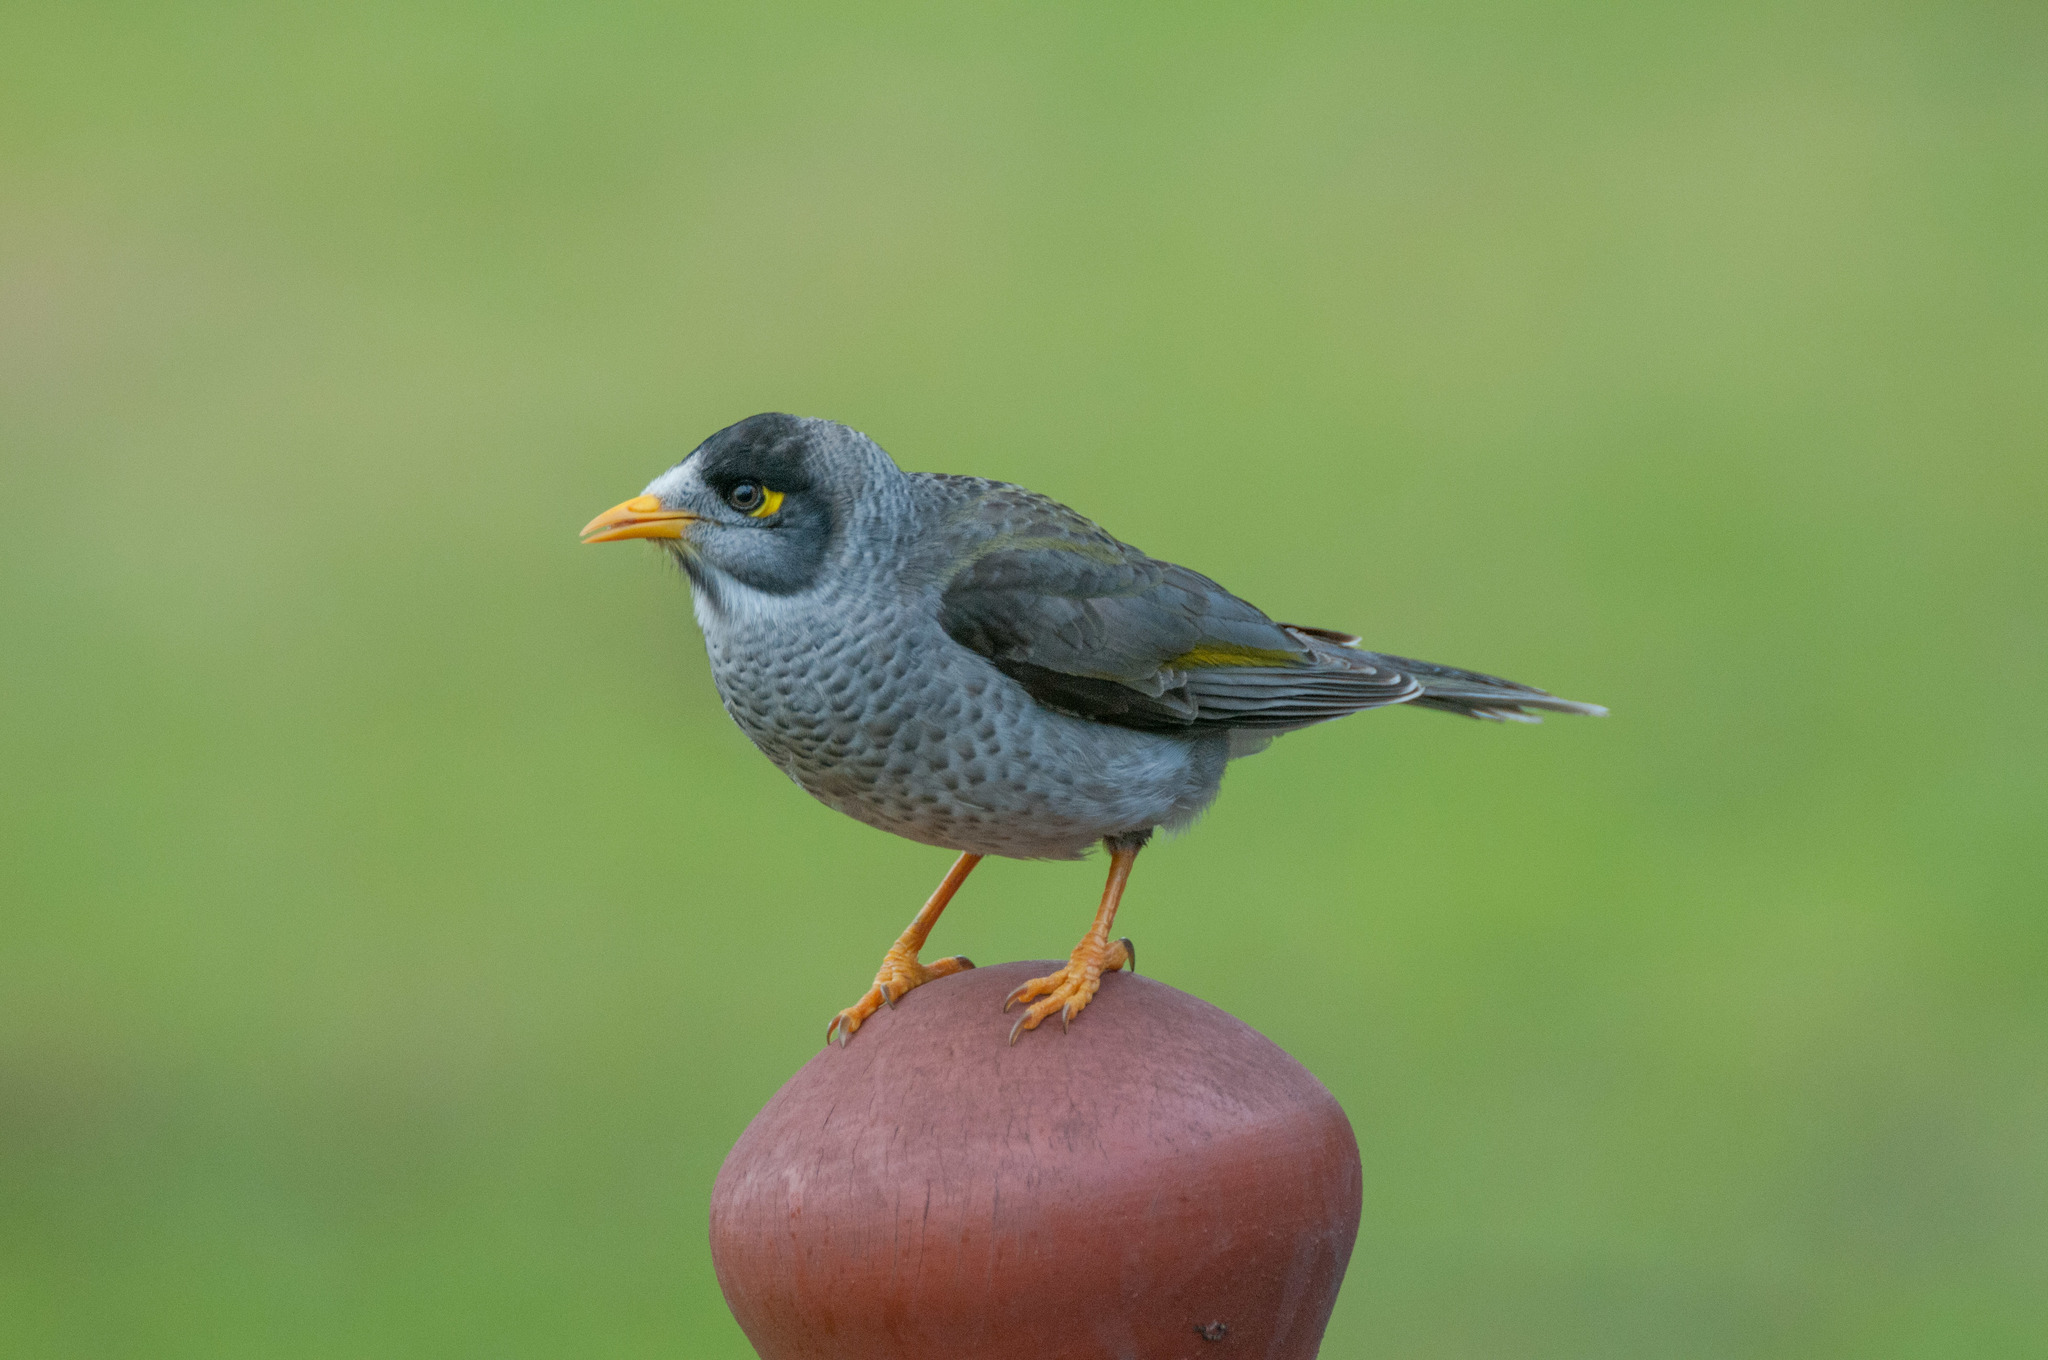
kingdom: Animalia
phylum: Chordata
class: Aves
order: Passeriformes
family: Meliphagidae
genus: Manorina
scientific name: Manorina melanocephala
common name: Noisy miner
